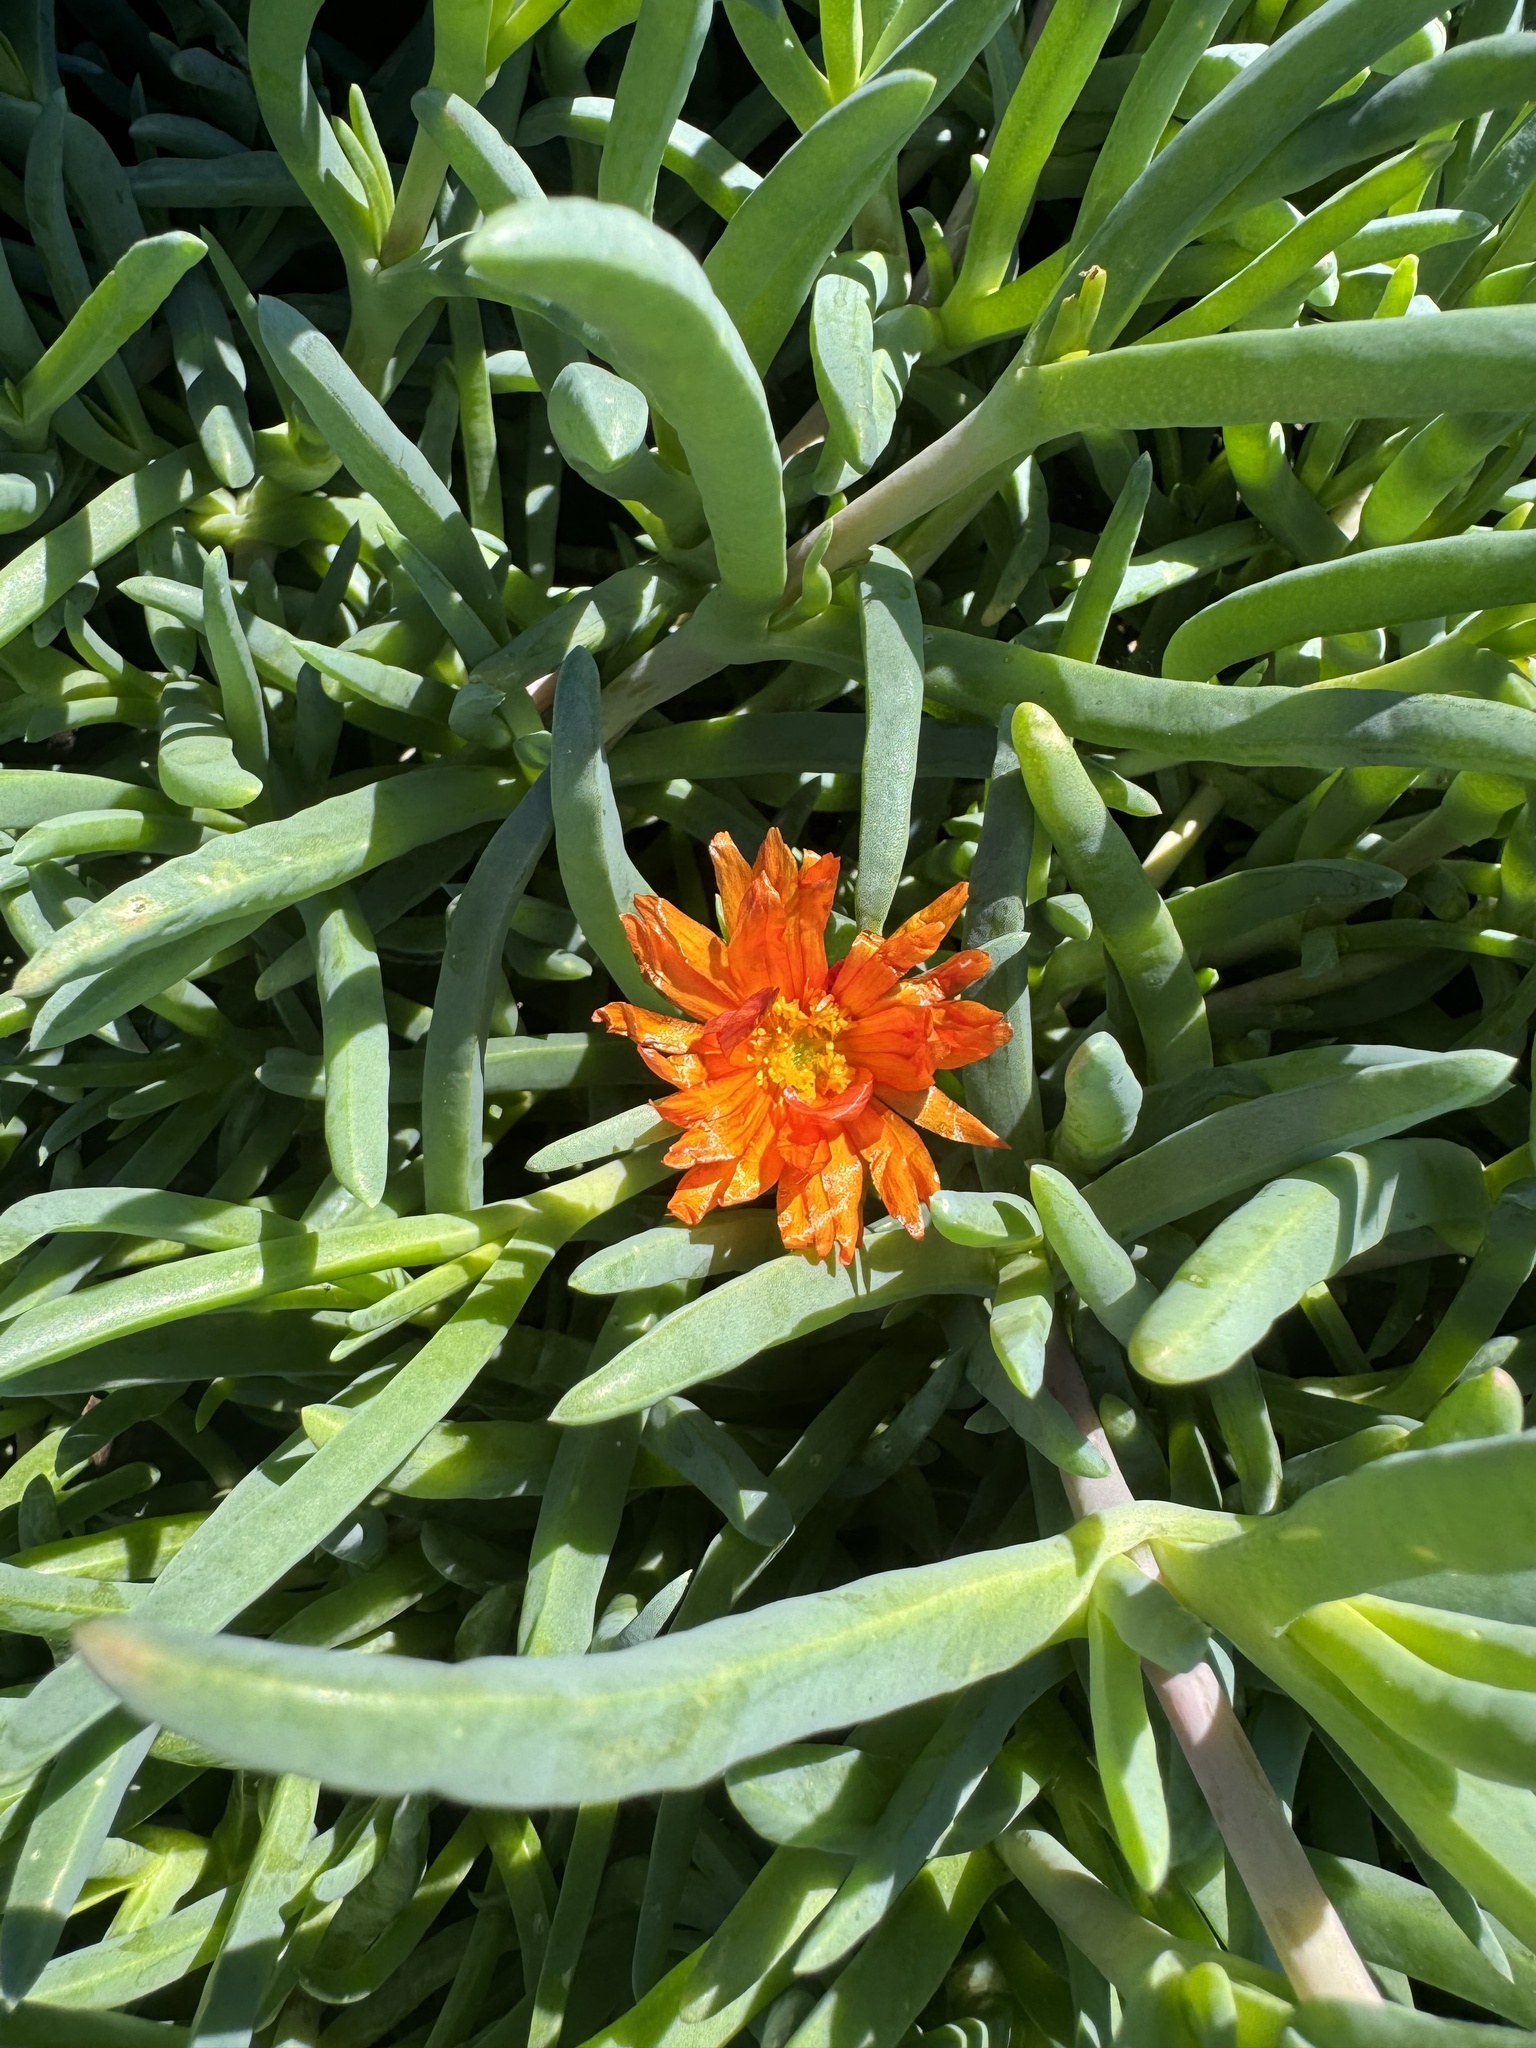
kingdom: Plantae
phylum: Tracheophyta
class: Magnoliopsida
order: Caryophyllales
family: Aizoaceae
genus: Malephora
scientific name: Malephora crocea
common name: Coppery mesemb
